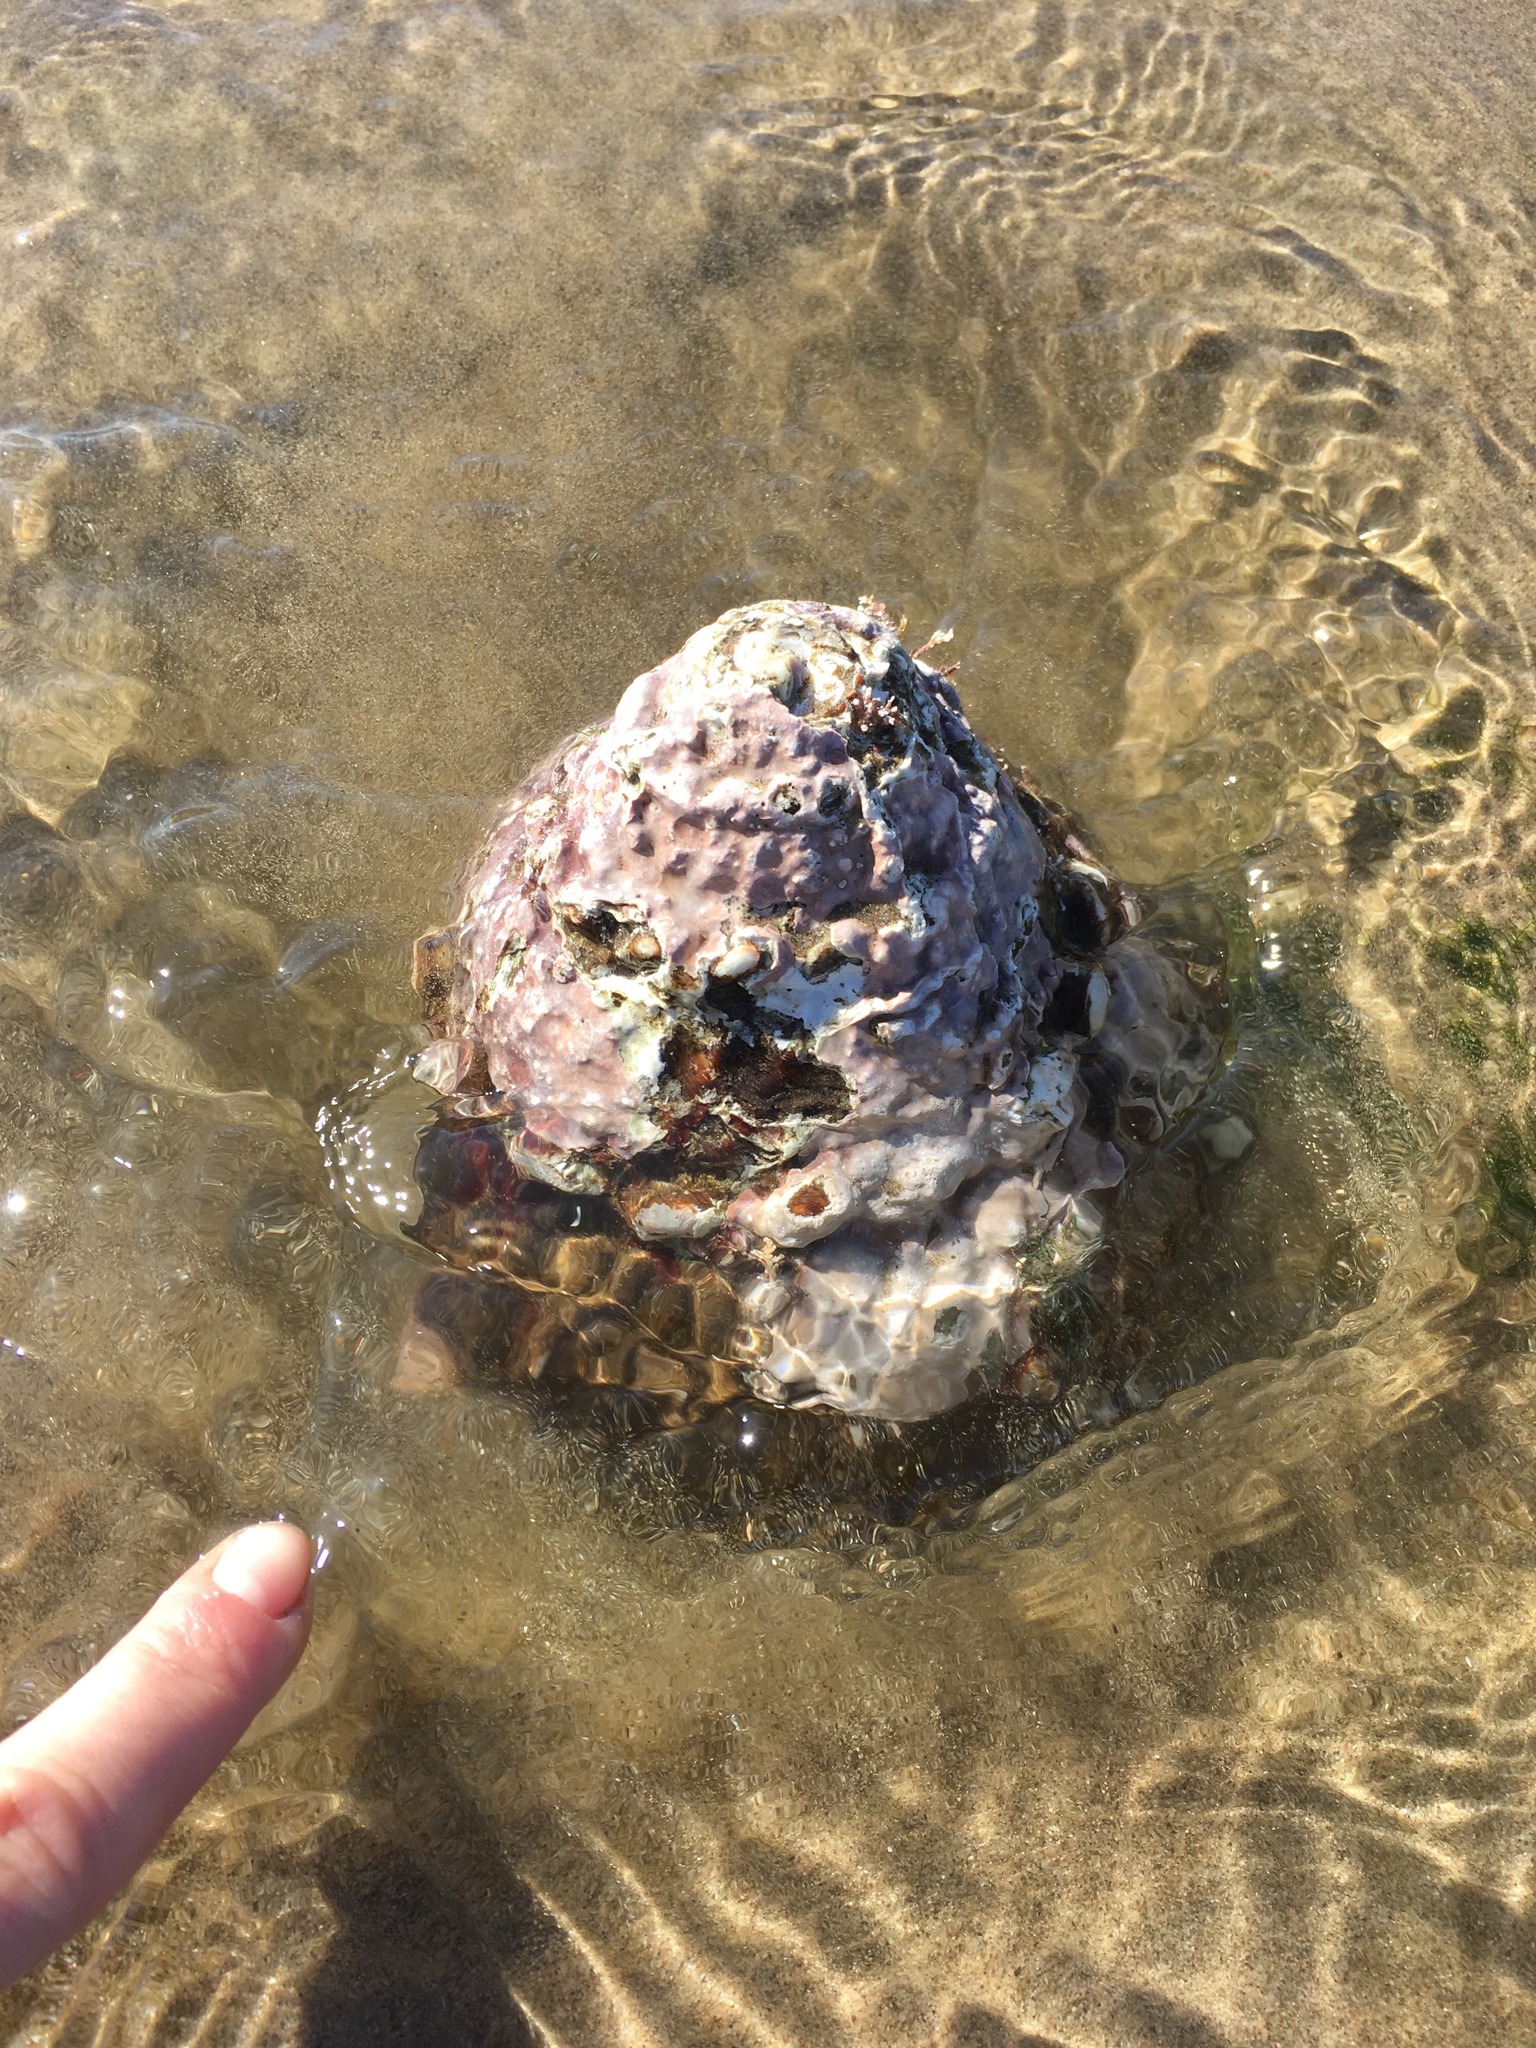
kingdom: Animalia
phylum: Mollusca
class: Gastropoda
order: Trochida
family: Turbinidae
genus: Megastraea
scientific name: Megastraea undosa
